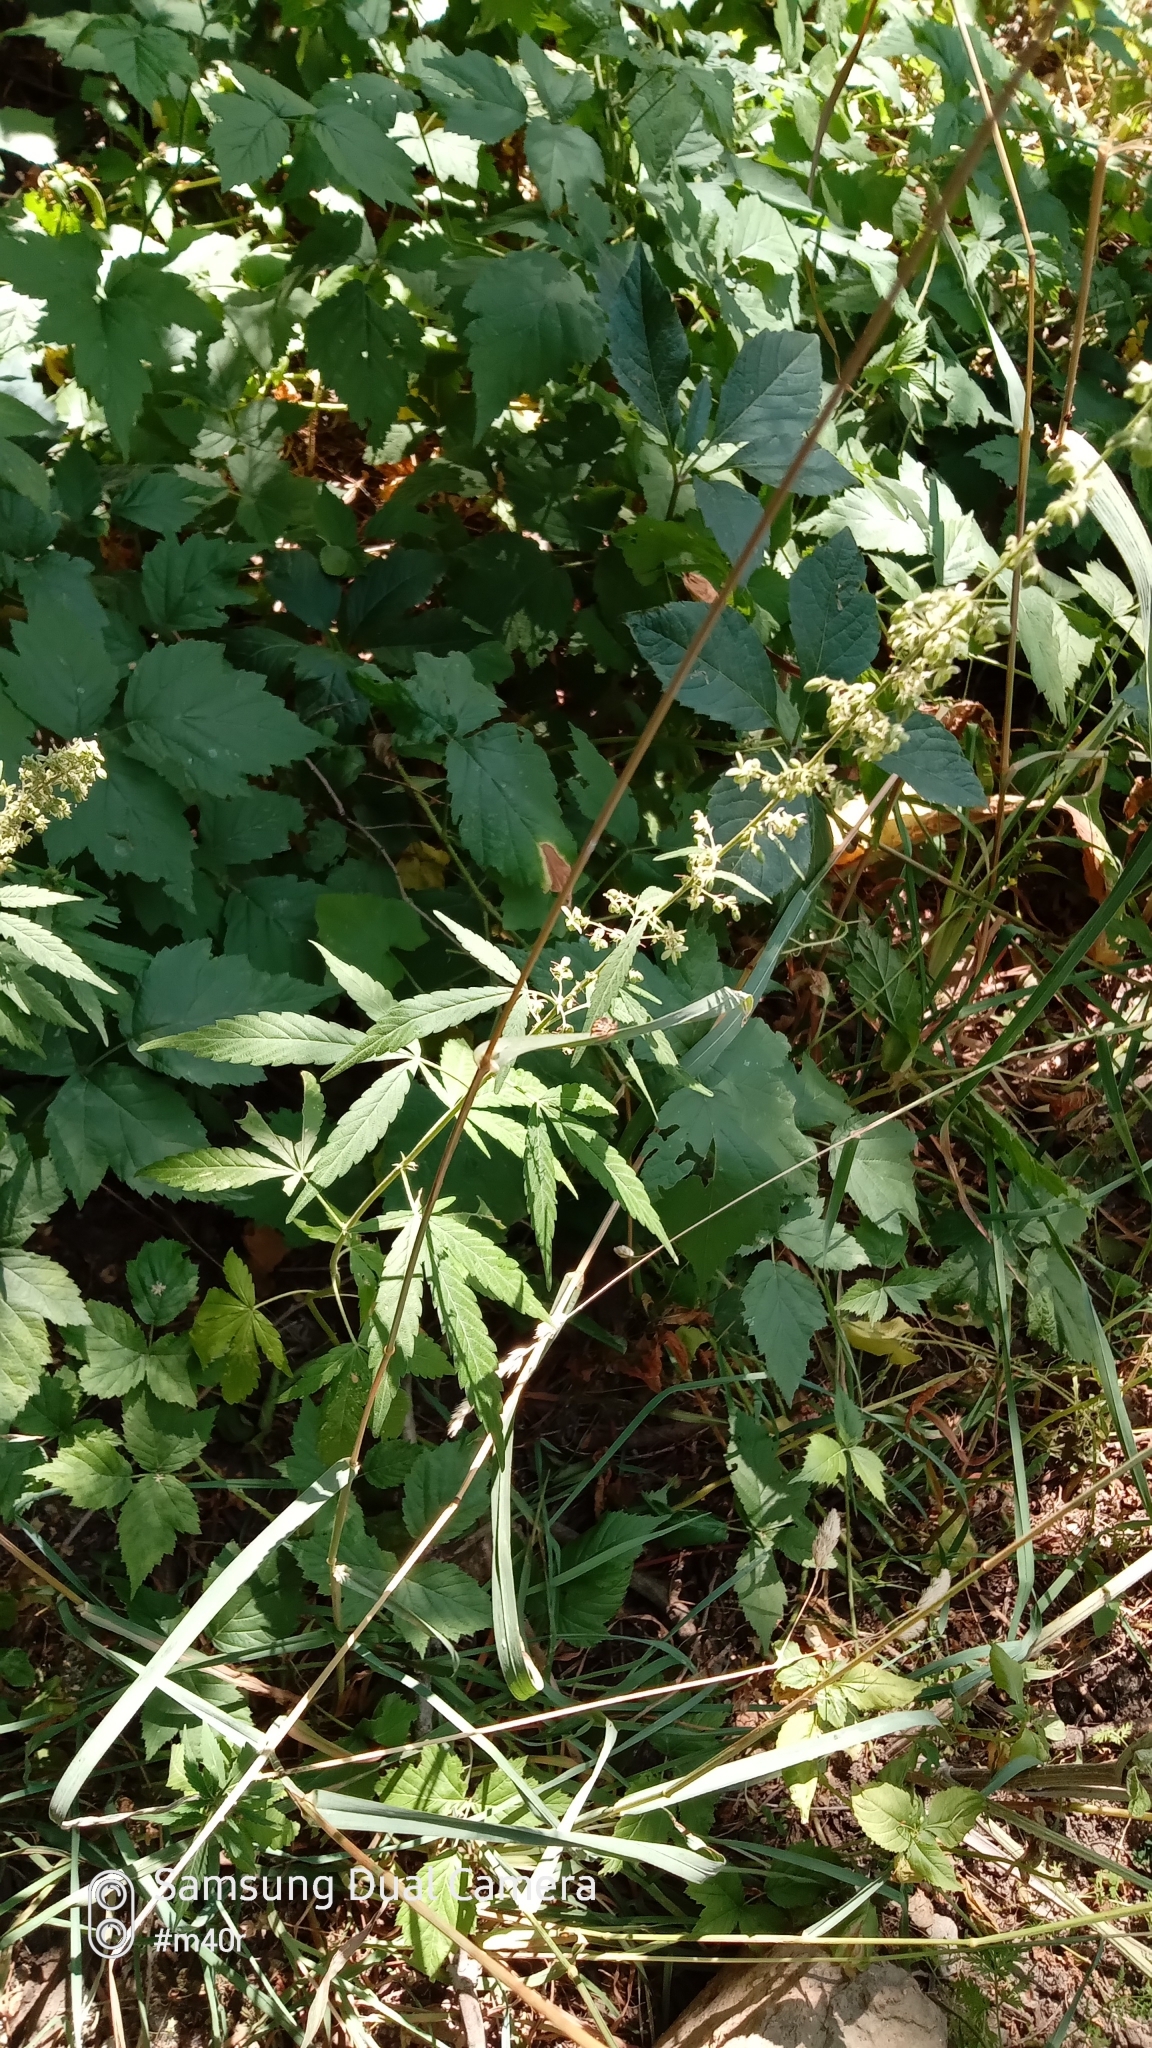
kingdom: Plantae
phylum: Tracheophyta
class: Magnoliopsida
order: Rosales
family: Cannabaceae
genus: Cannabis
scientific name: Cannabis sativa
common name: Hemp
